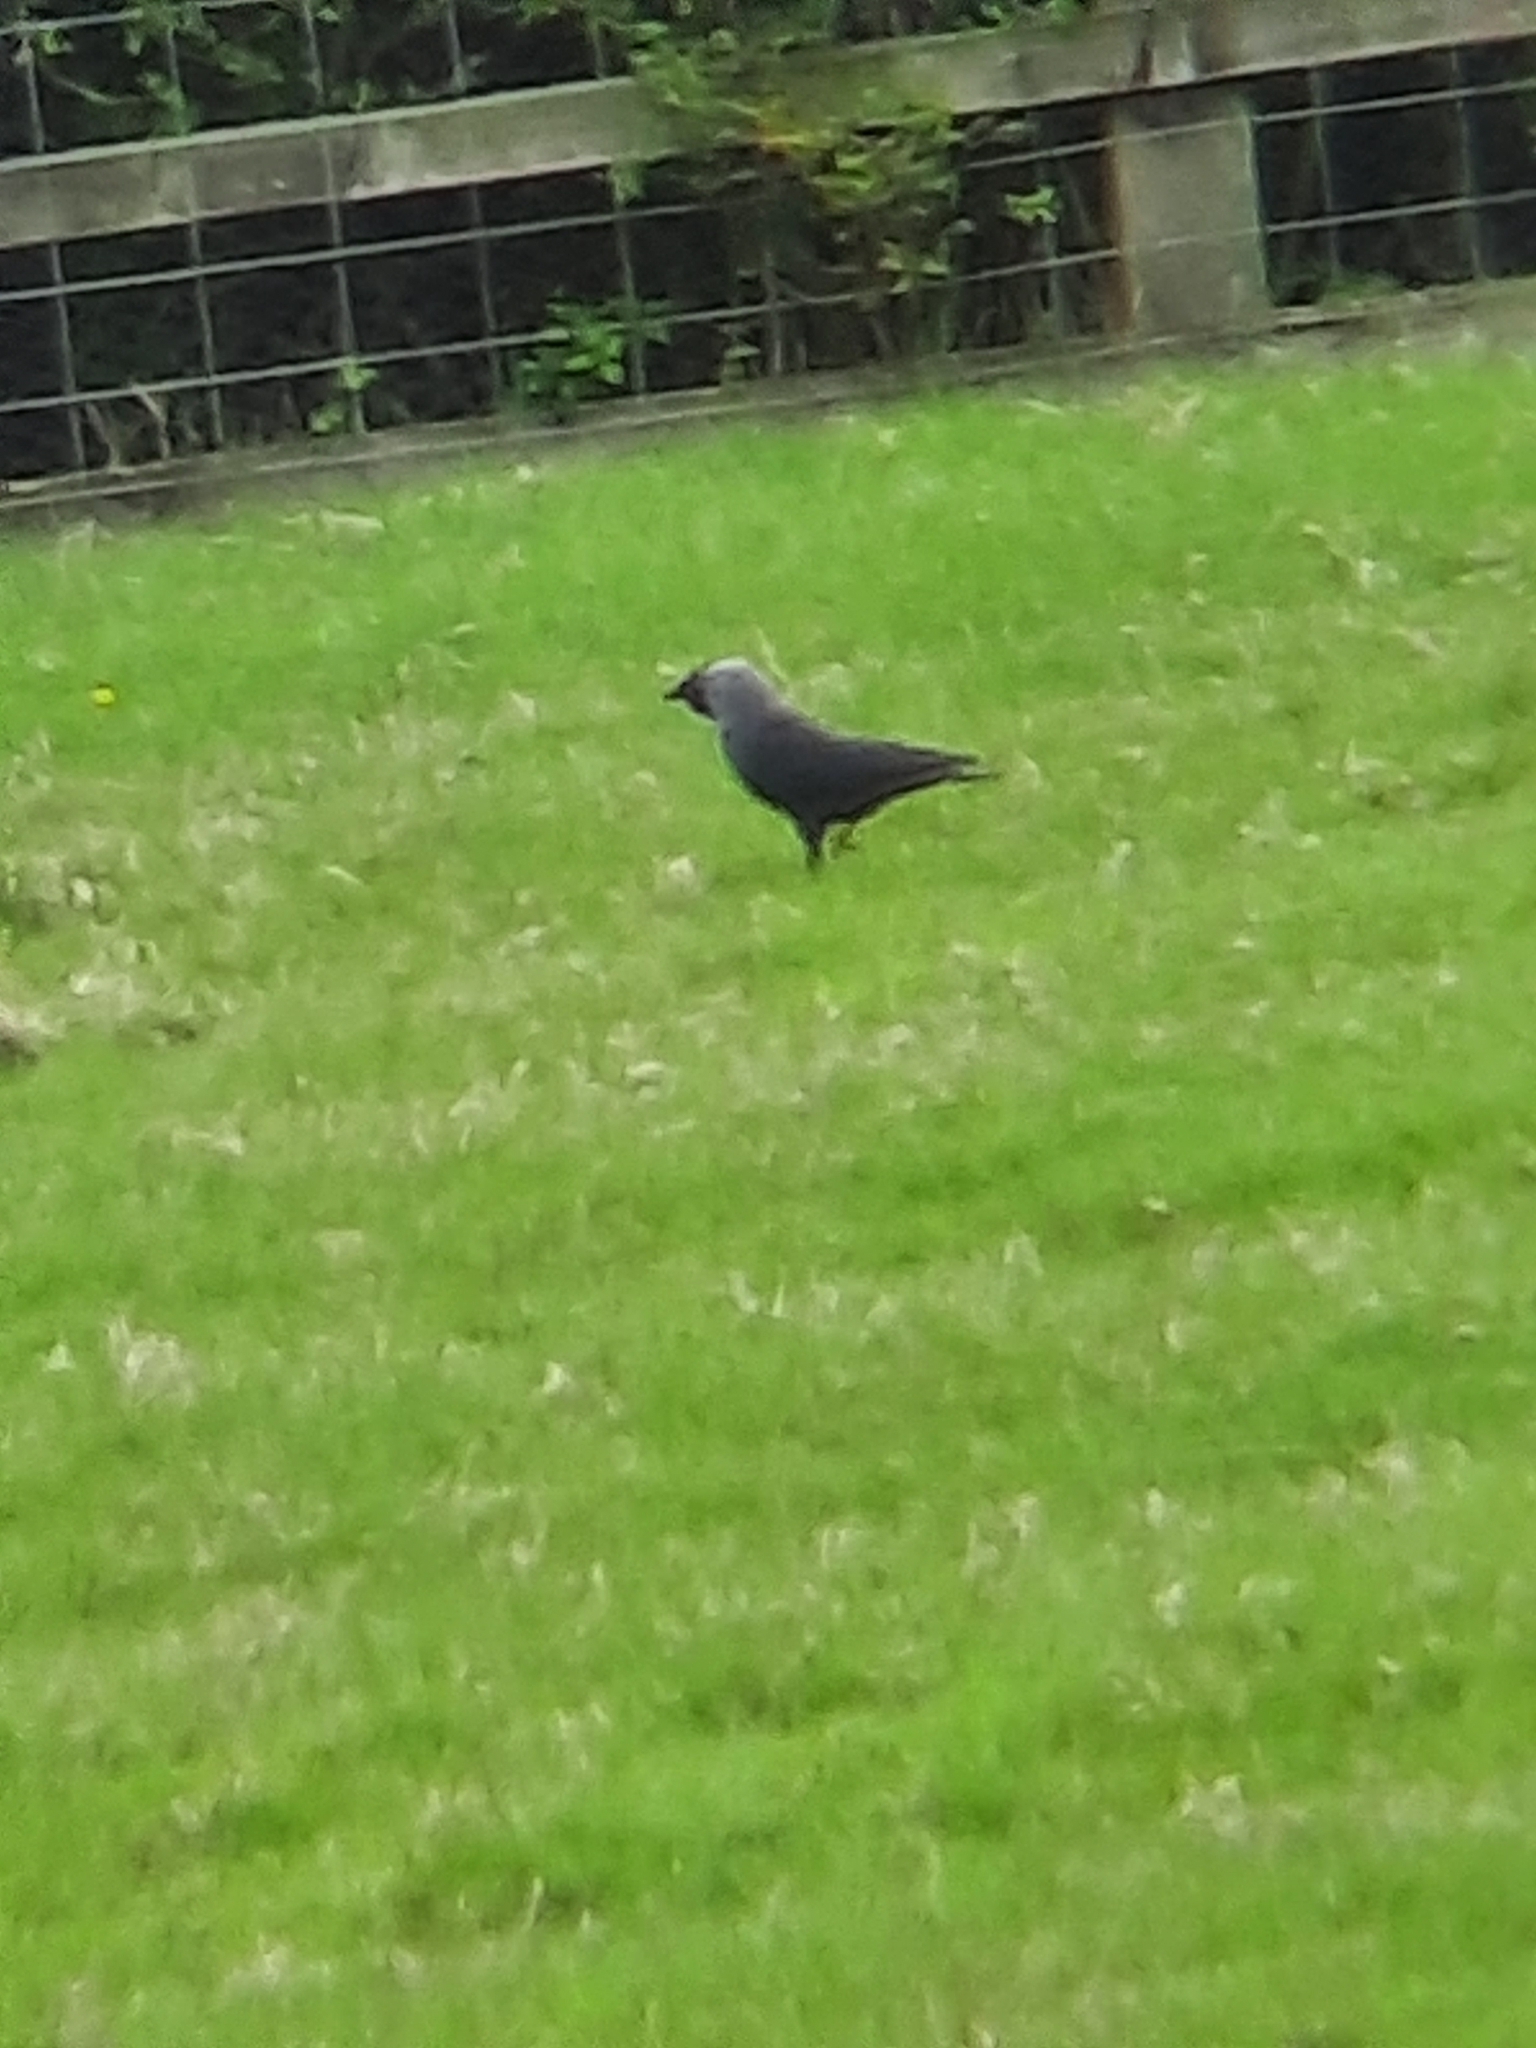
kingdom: Animalia
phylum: Chordata
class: Aves
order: Passeriformes
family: Corvidae
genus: Coloeus
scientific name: Coloeus monedula
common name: Western jackdaw
